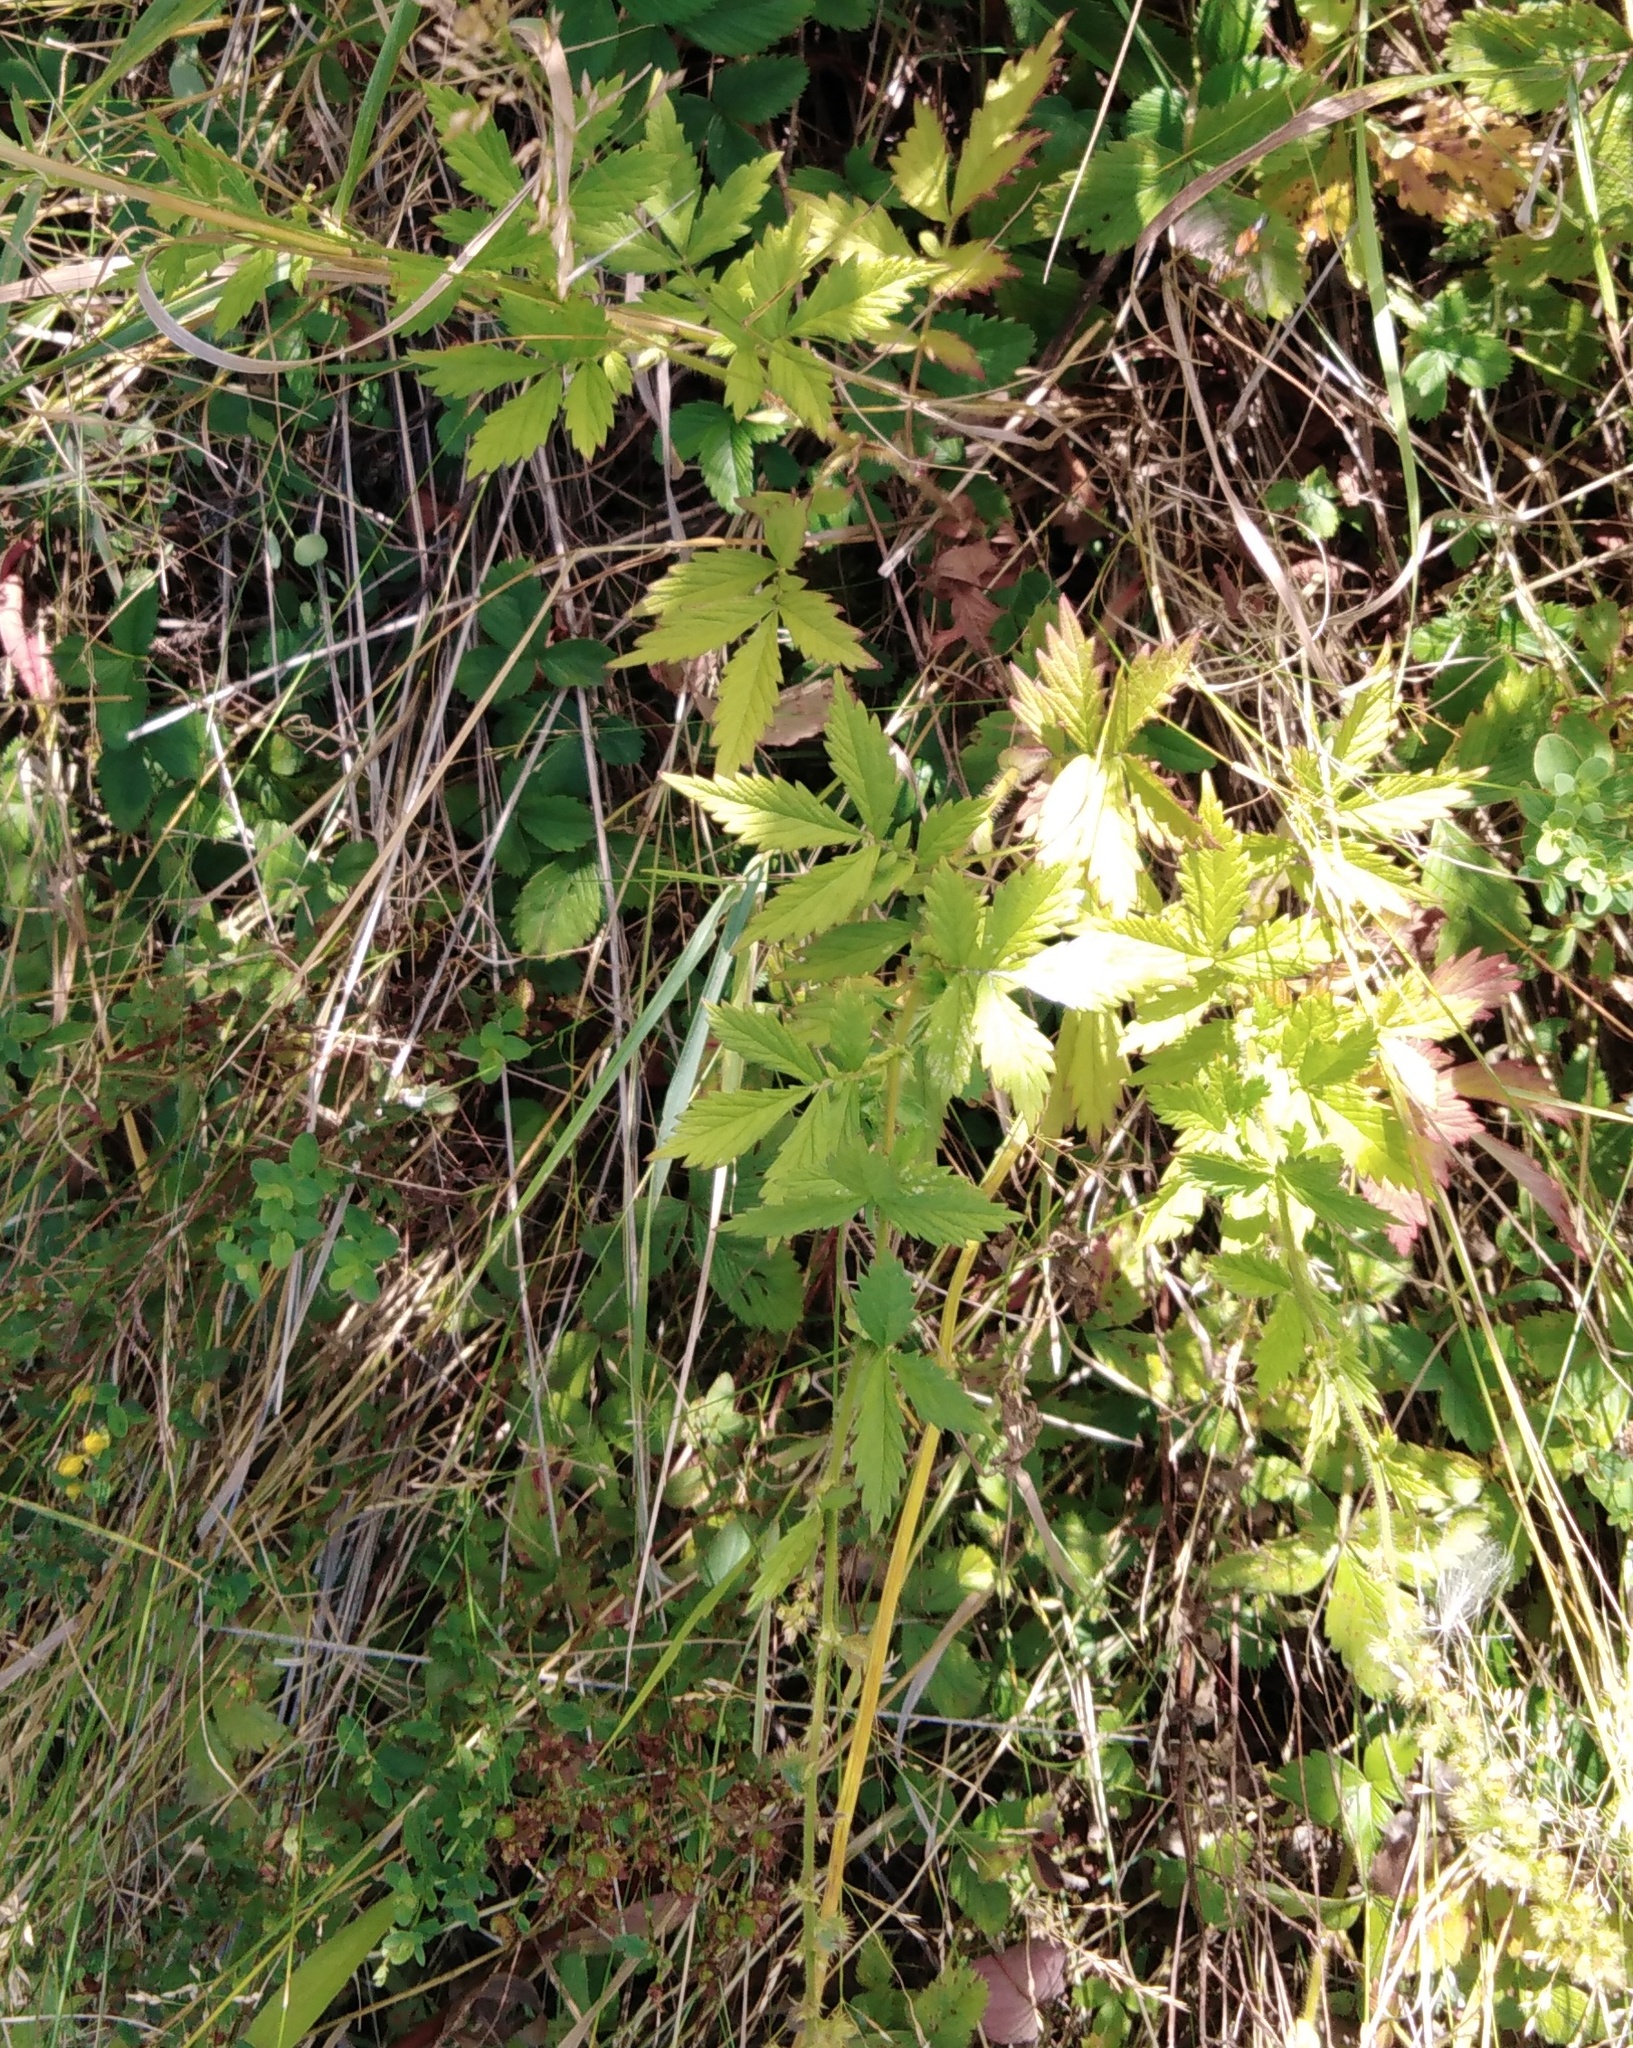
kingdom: Plantae
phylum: Tracheophyta
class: Magnoliopsida
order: Rosales
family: Rosaceae
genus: Agrimonia
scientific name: Agrimonia pilosa
